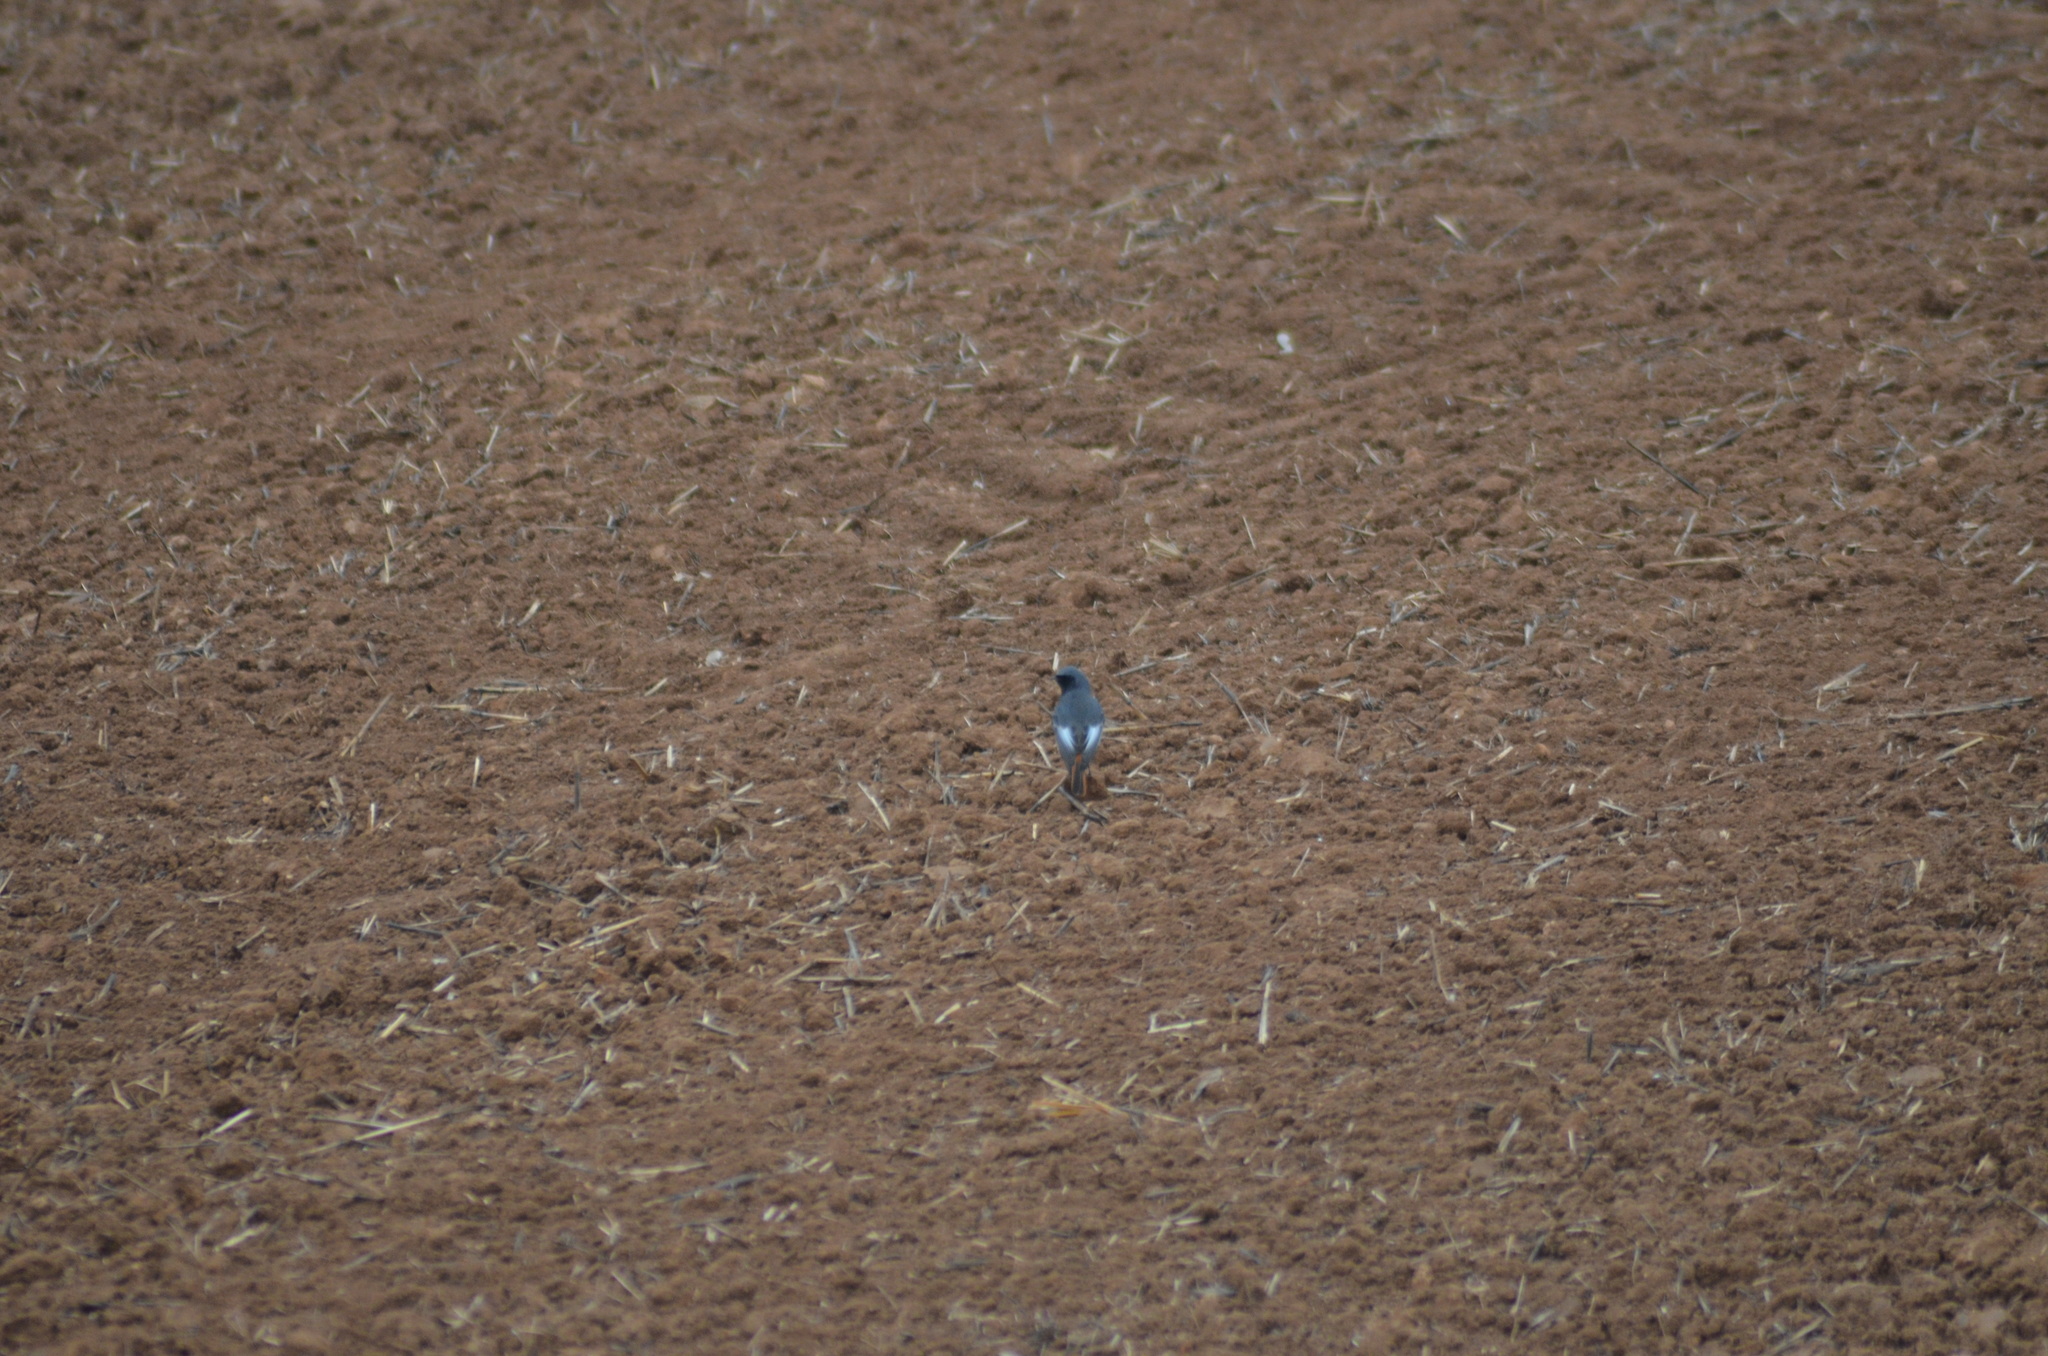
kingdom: Animalia
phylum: Chordata
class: Aves
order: Passeriformes
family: Muscicapidae
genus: Phoenicurus
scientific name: Phoenicurus ochruros
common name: Black redstart
